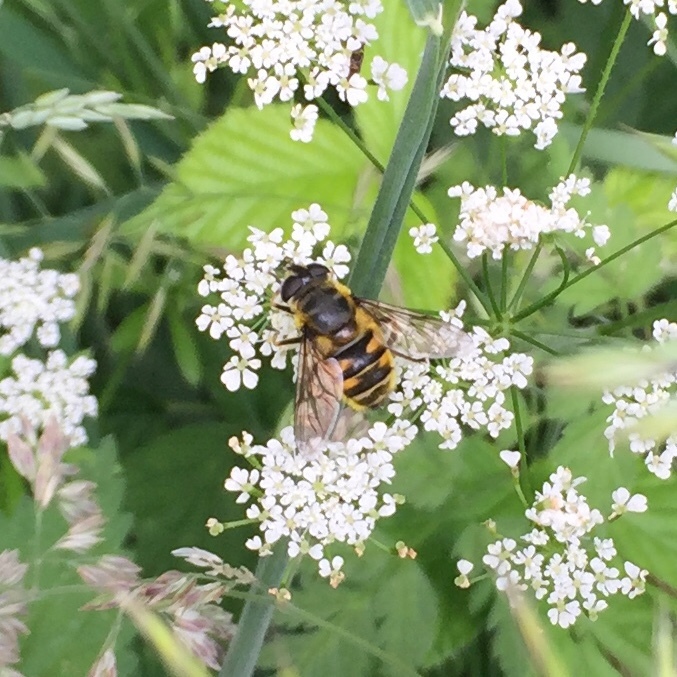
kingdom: Animalia
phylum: Arthropoda
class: Insecta
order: Diptera
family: Syrphidae
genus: Myathropa
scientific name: Myathropa florea
